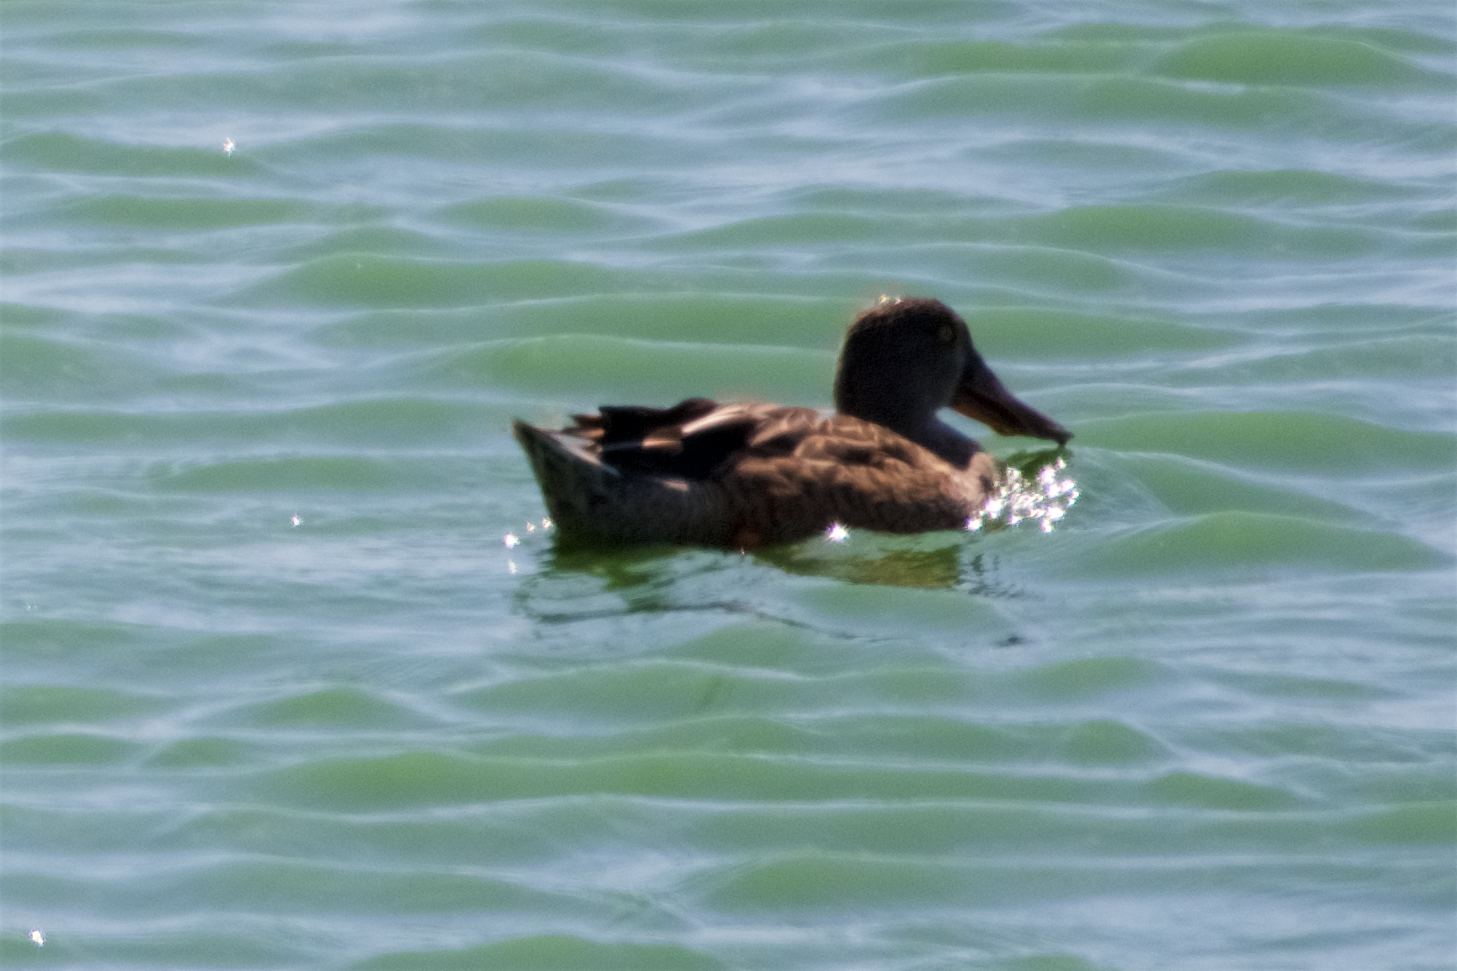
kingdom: Animalia
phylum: Chordata
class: Aves
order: Anseriformes
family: Anatidae
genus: Spatula
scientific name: Spatula clypeata
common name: Northern shoveler
